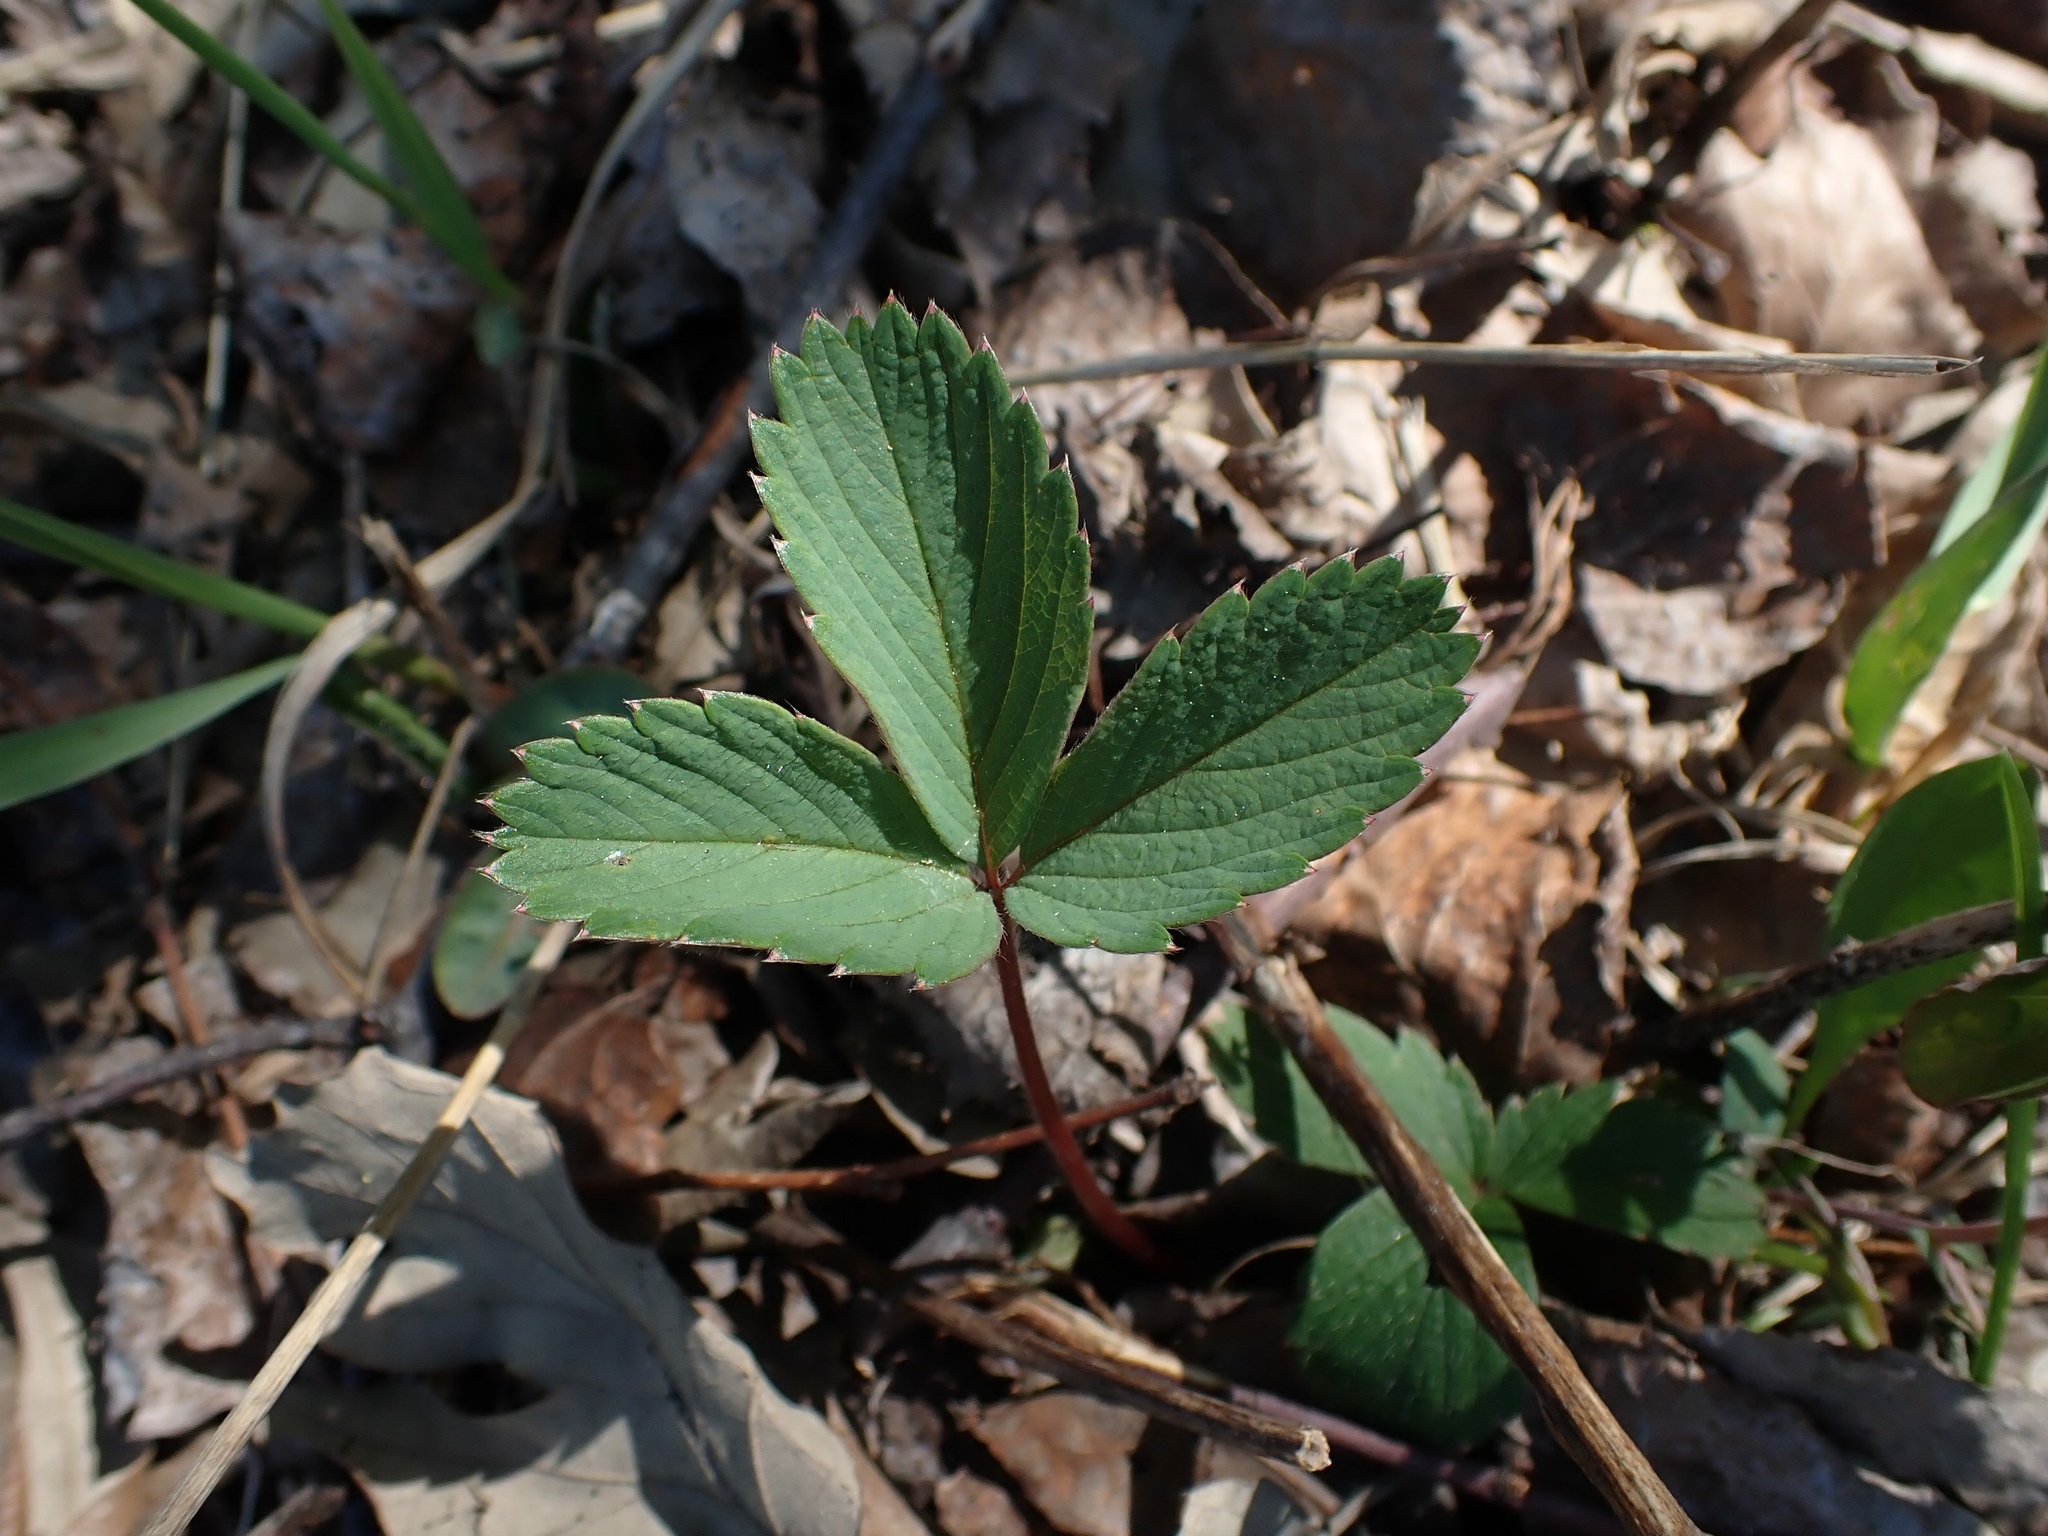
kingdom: Plantae
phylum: Tracheophyta
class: Magnoliopsida
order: Rosales
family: Rosaceae
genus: Fragaria
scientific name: Fragaria virginiana
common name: Thickleaved wild strawberry
